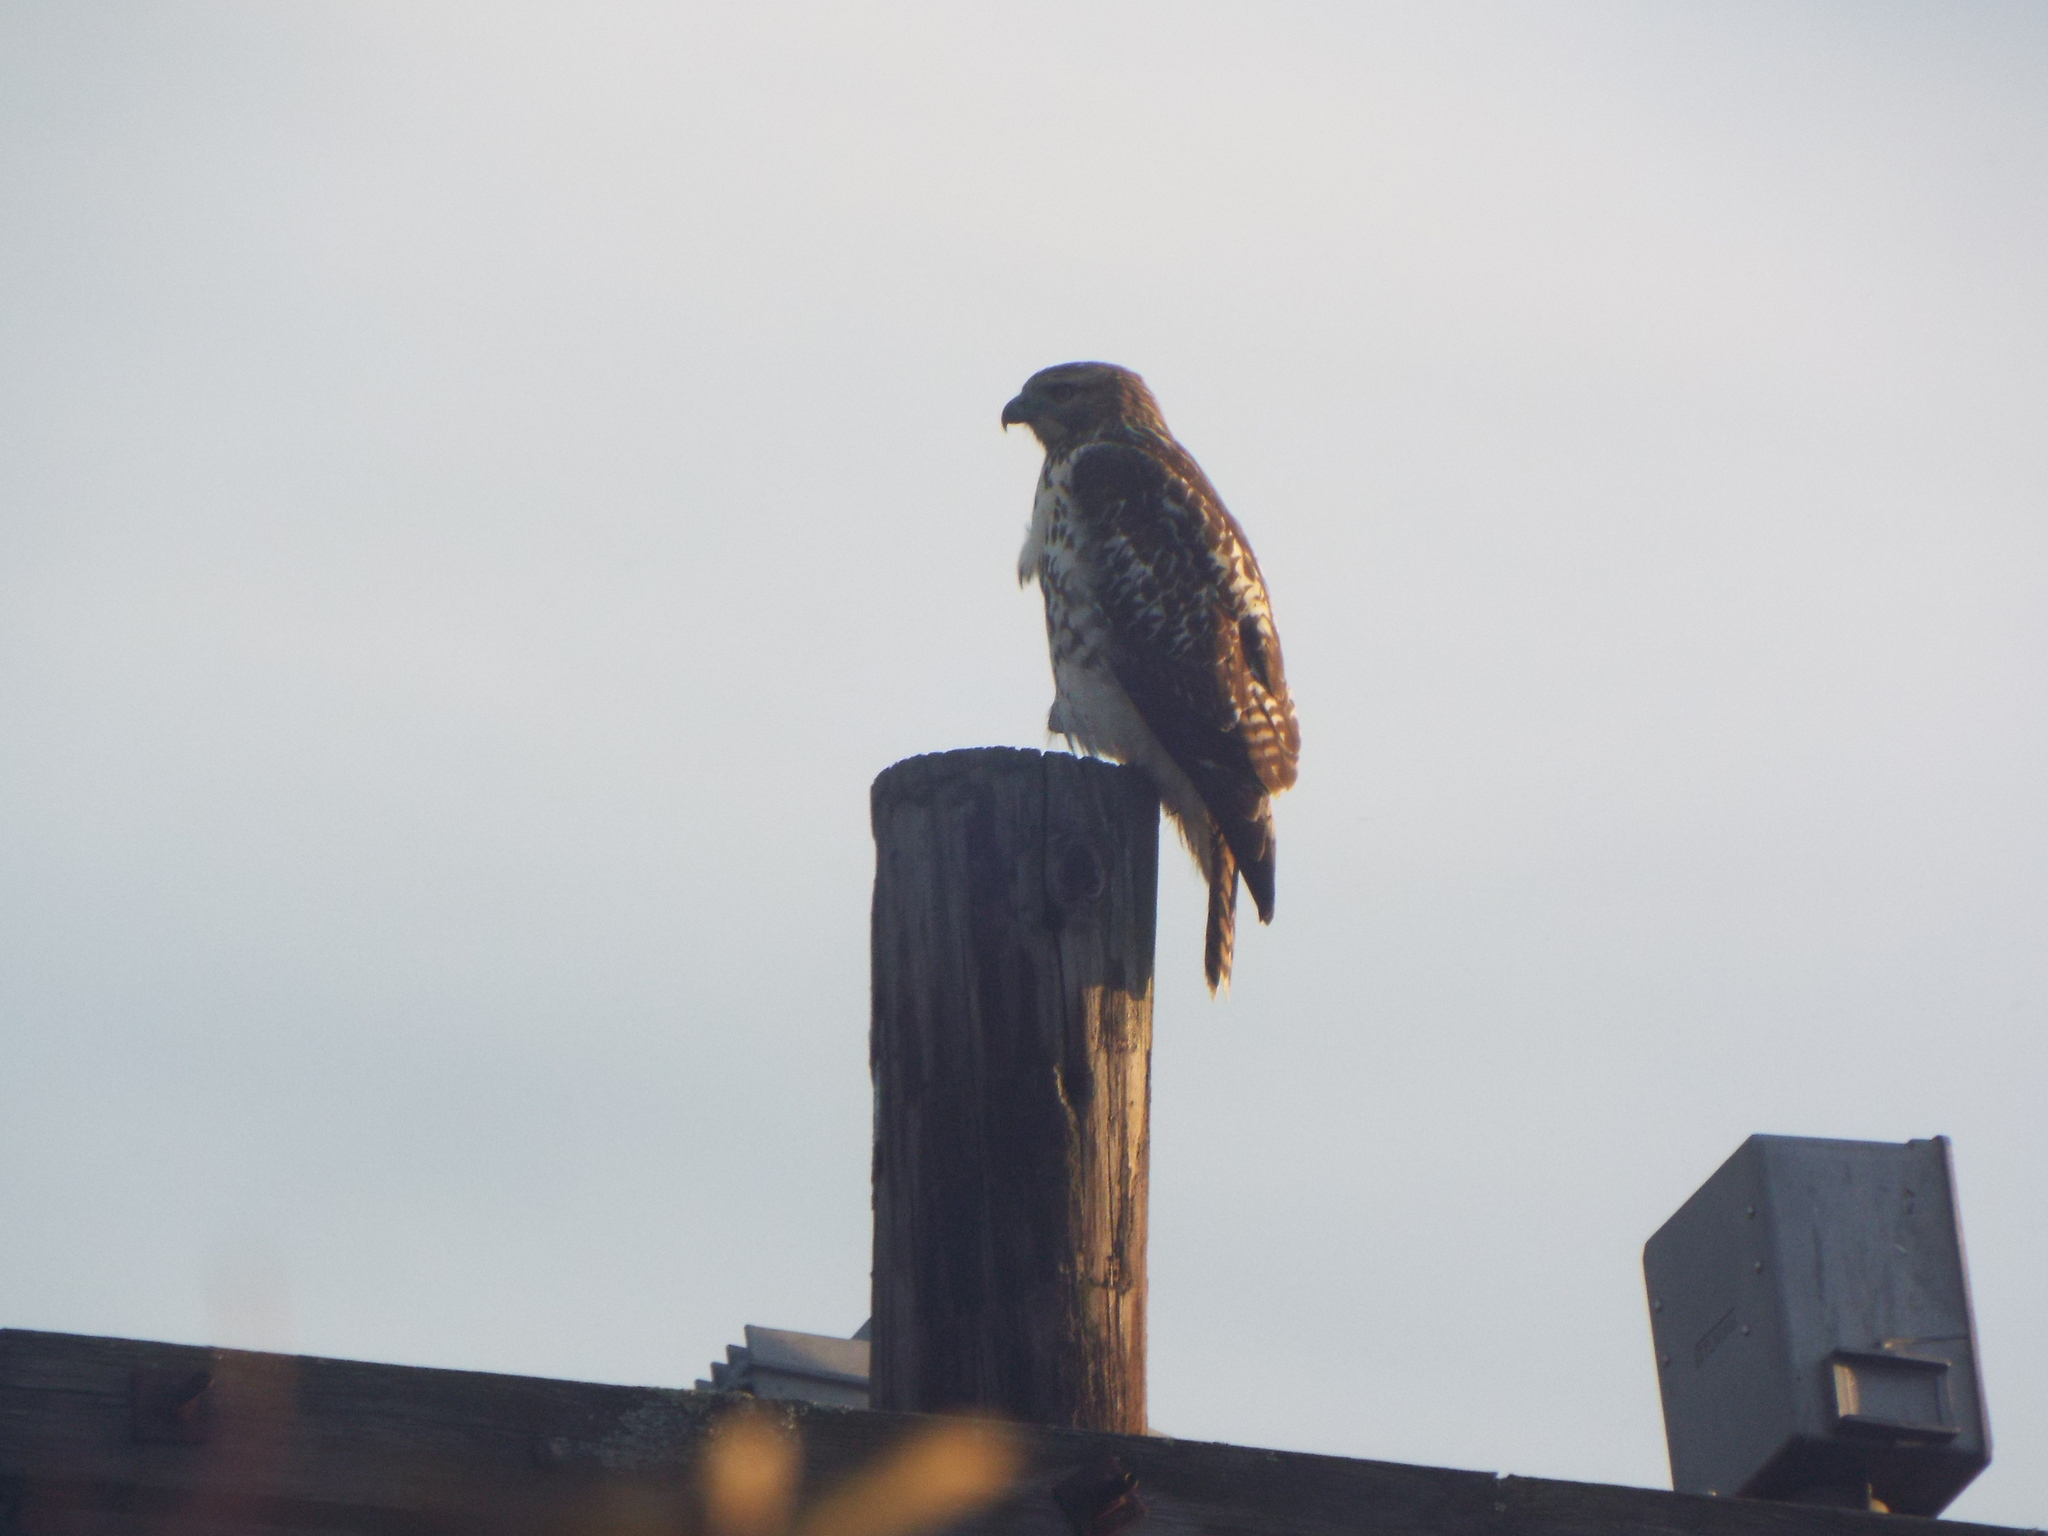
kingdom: Animalia
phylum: Chordata
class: Aves
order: Accipitriformes
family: Accipitridae
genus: Buteo
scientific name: Buteo jamaicensis
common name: Red-tailed hawk
